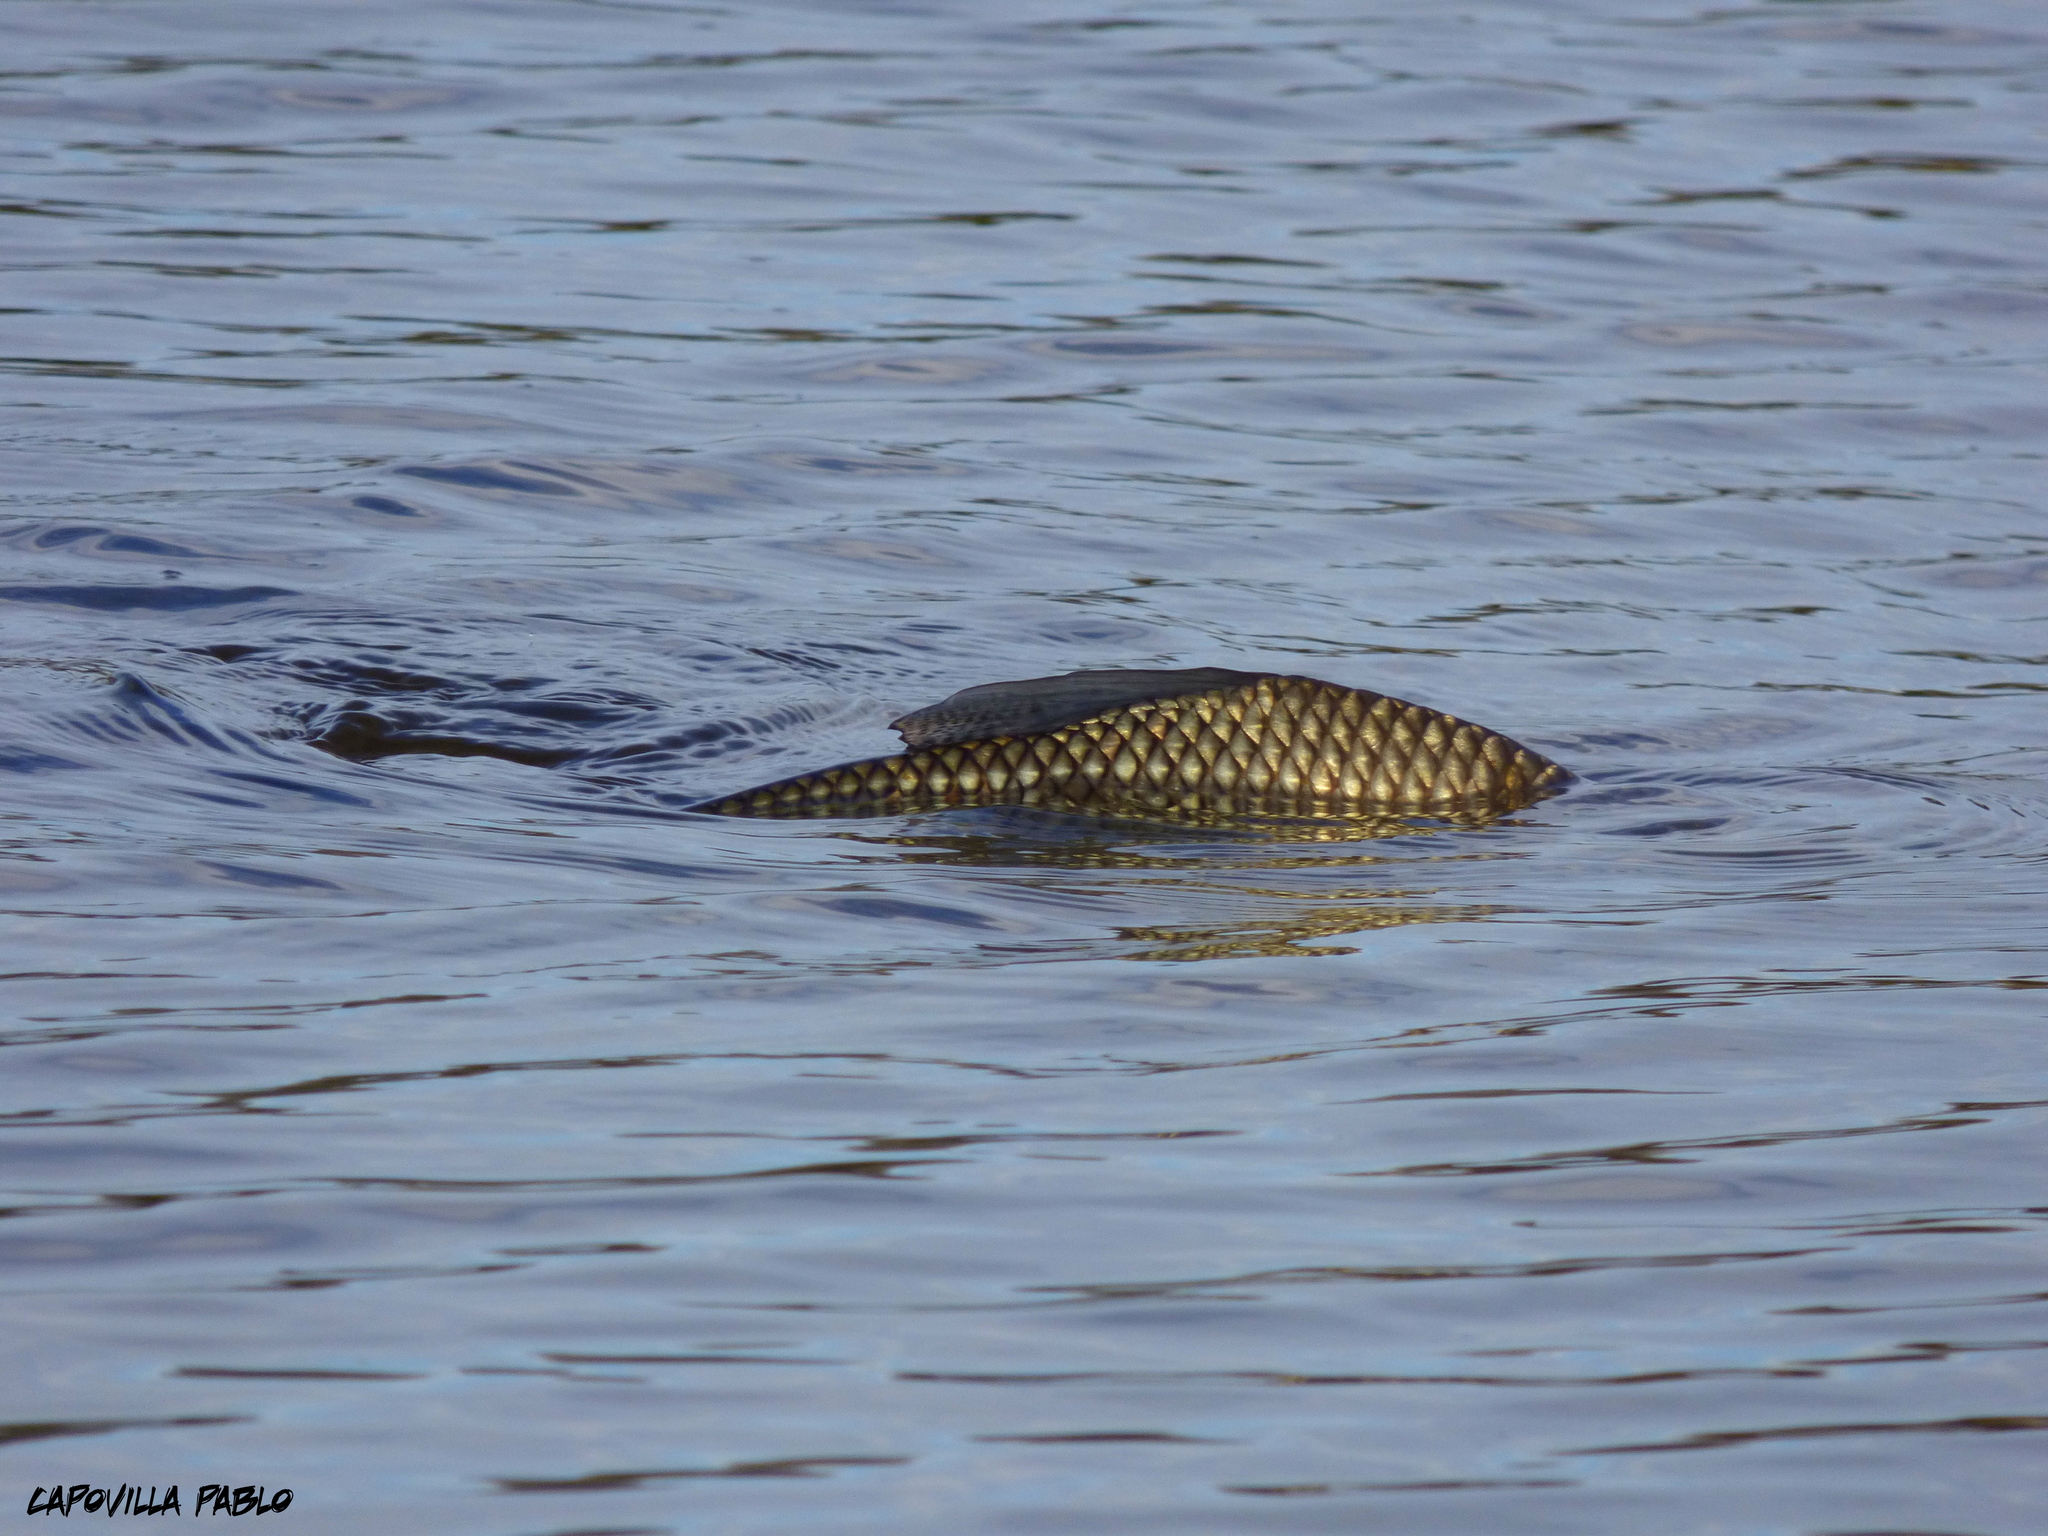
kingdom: Animalia
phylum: Chordata
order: Characiformes
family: Prochilodontidae
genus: Prochilodus
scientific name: Prochilodus lineatus
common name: Curimbata
